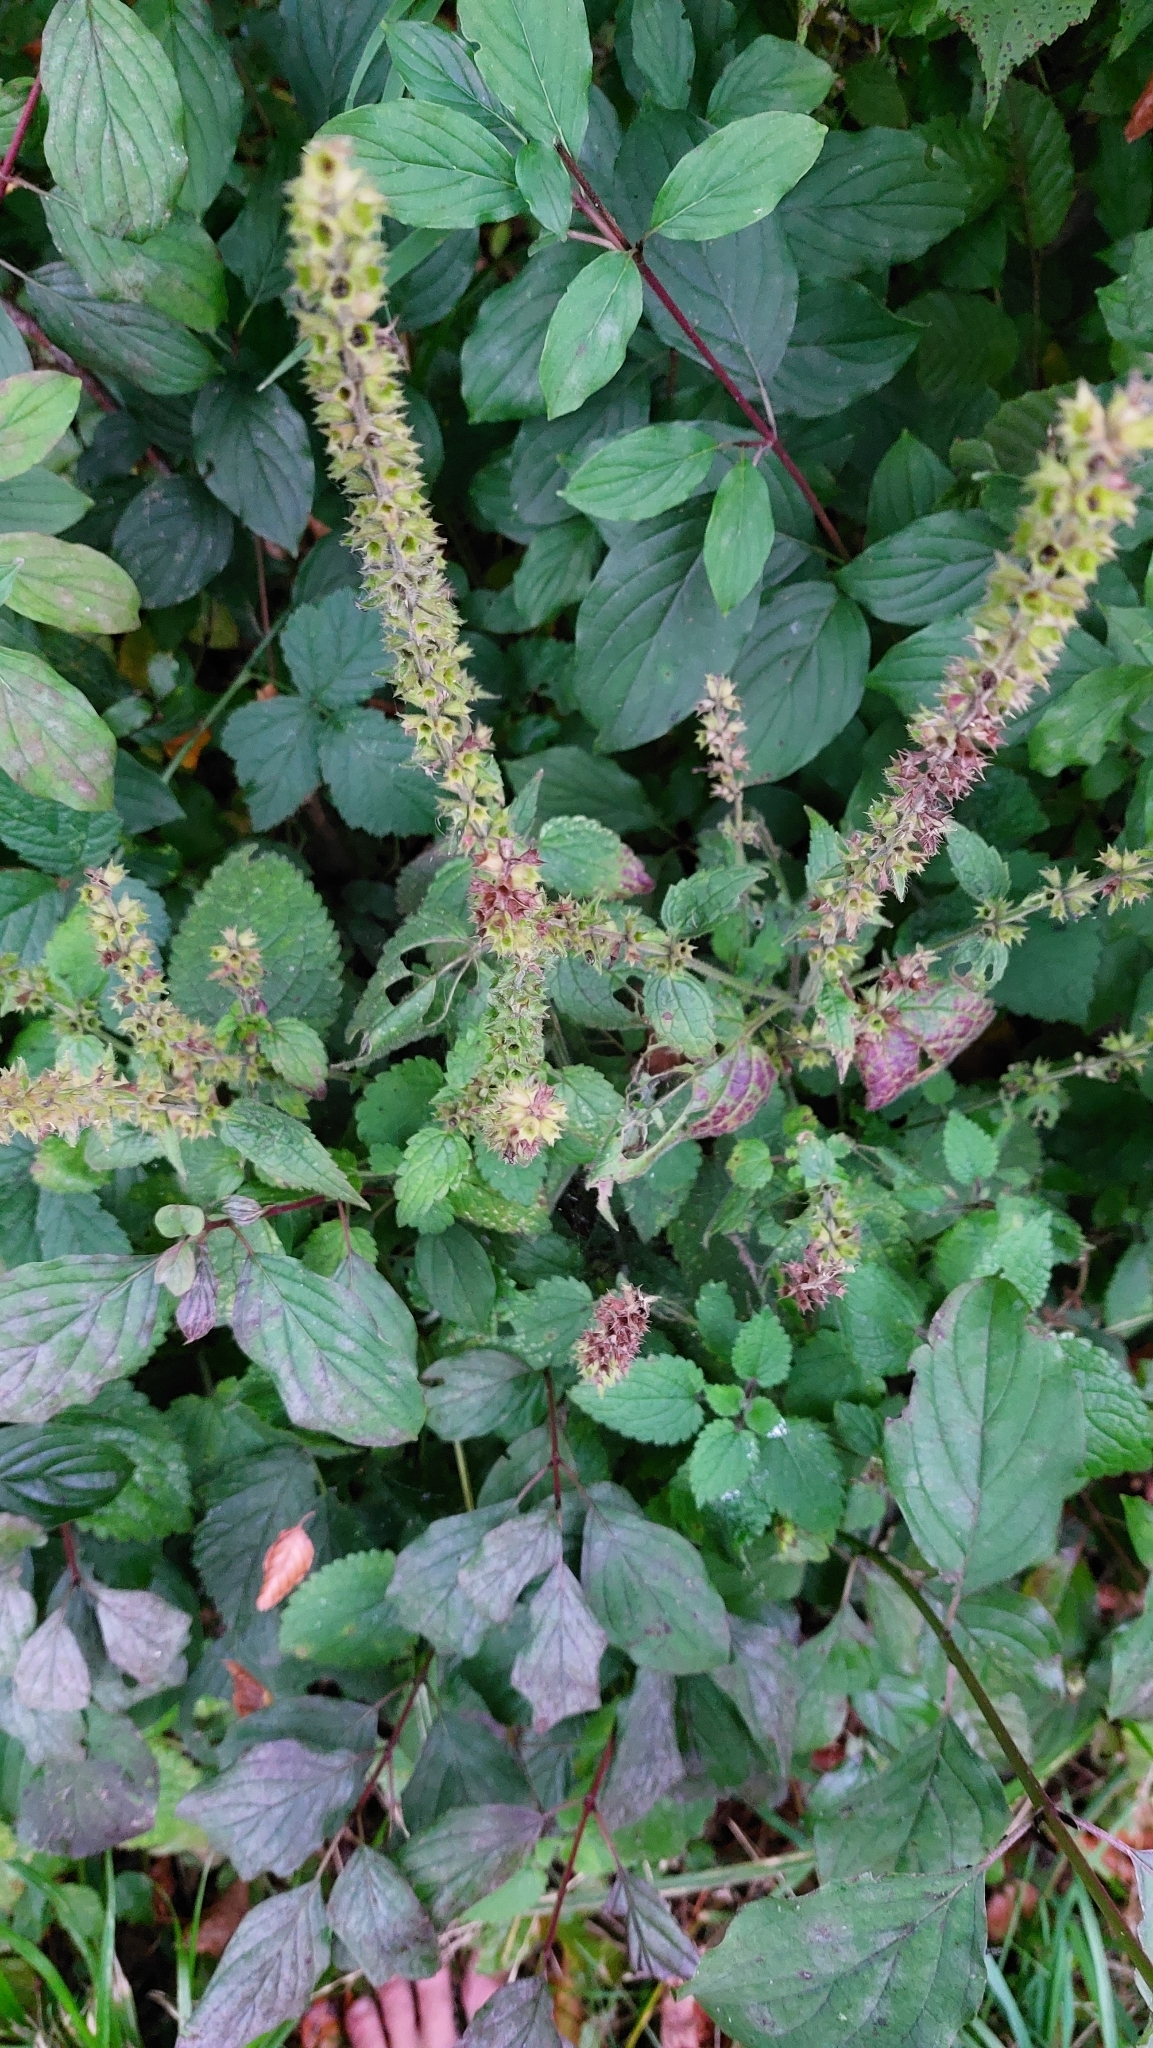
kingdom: Plantae
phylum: Tracheophyta
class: Magnoliopsida
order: Lamiales
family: Lamiaceae
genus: Stachys
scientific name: Stachys sylvatica
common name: Hedge woundwort
